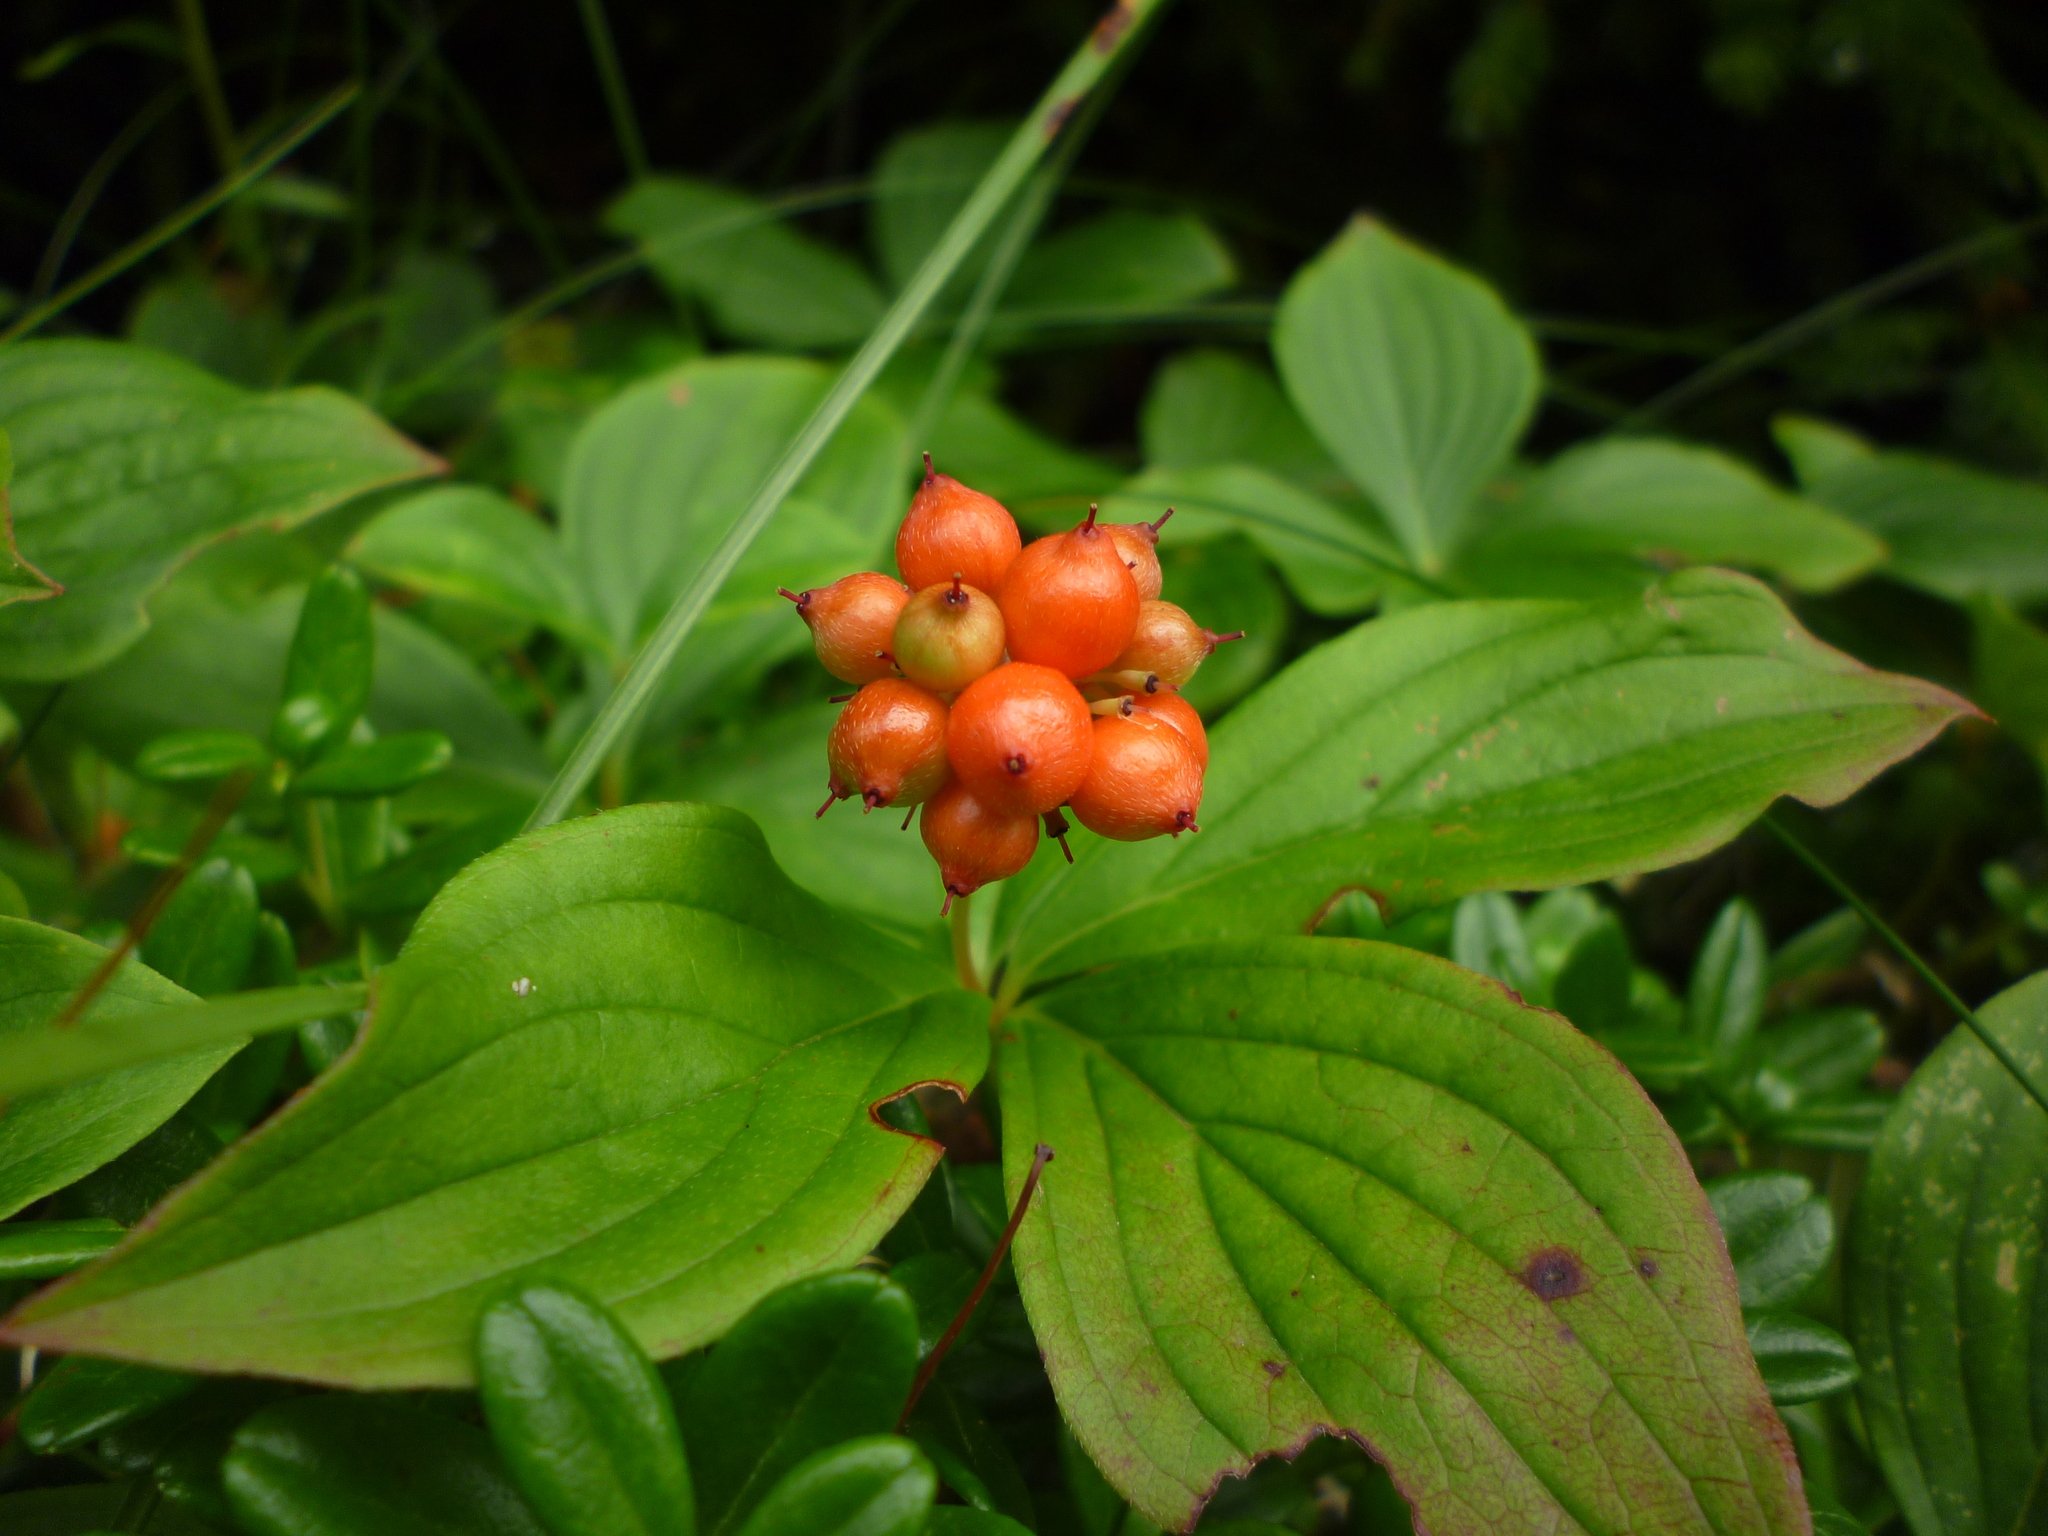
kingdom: Plantae
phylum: Tracheophyta
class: Magnoliopsida
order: Cornales
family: Cornaceae
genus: Cornus
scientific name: Cornus canadensis
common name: Creeping dogwood
